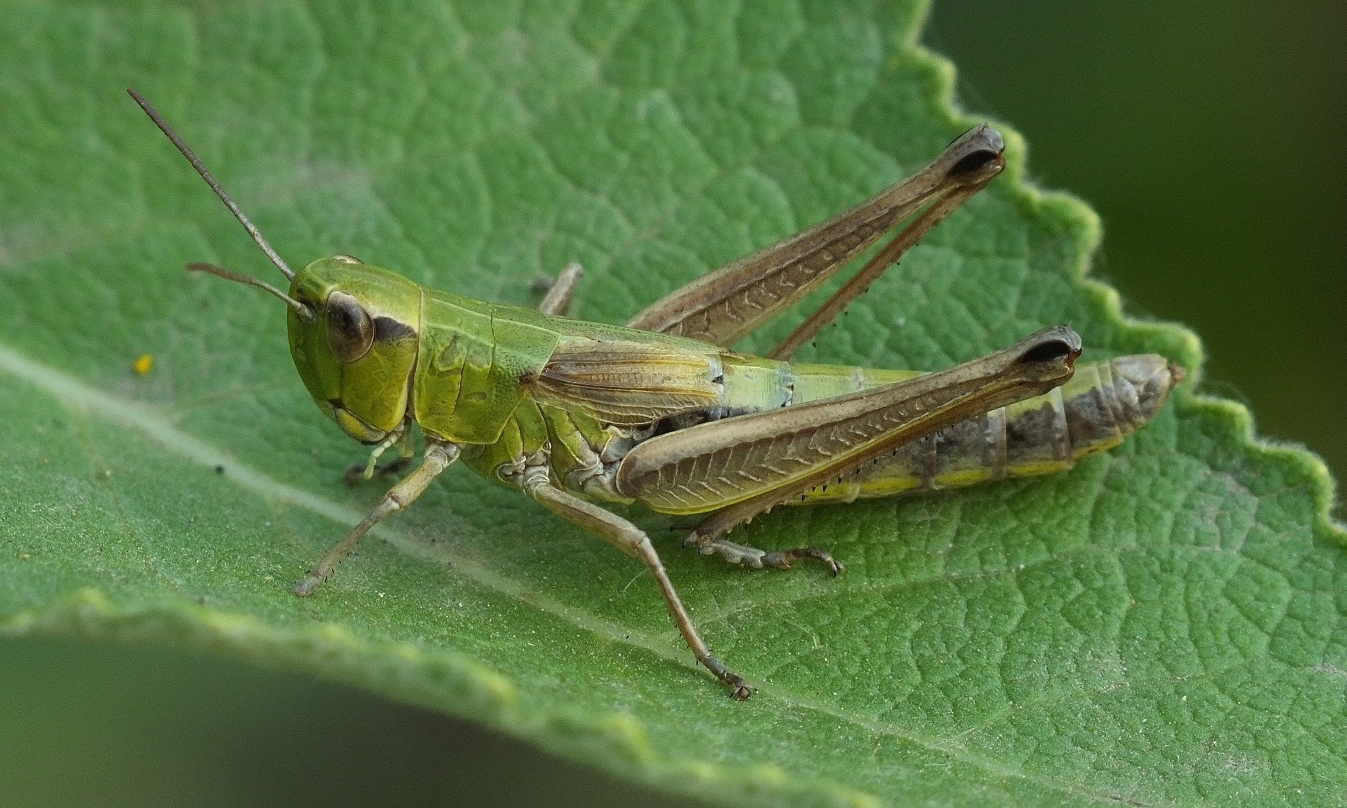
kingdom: Animalia
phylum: Arthropoda
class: Insecta
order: Orthoptera
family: Acrididae
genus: Pseudochorthippus
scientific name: Pseudochorthippus parallelus
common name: Meadow grasshopper
